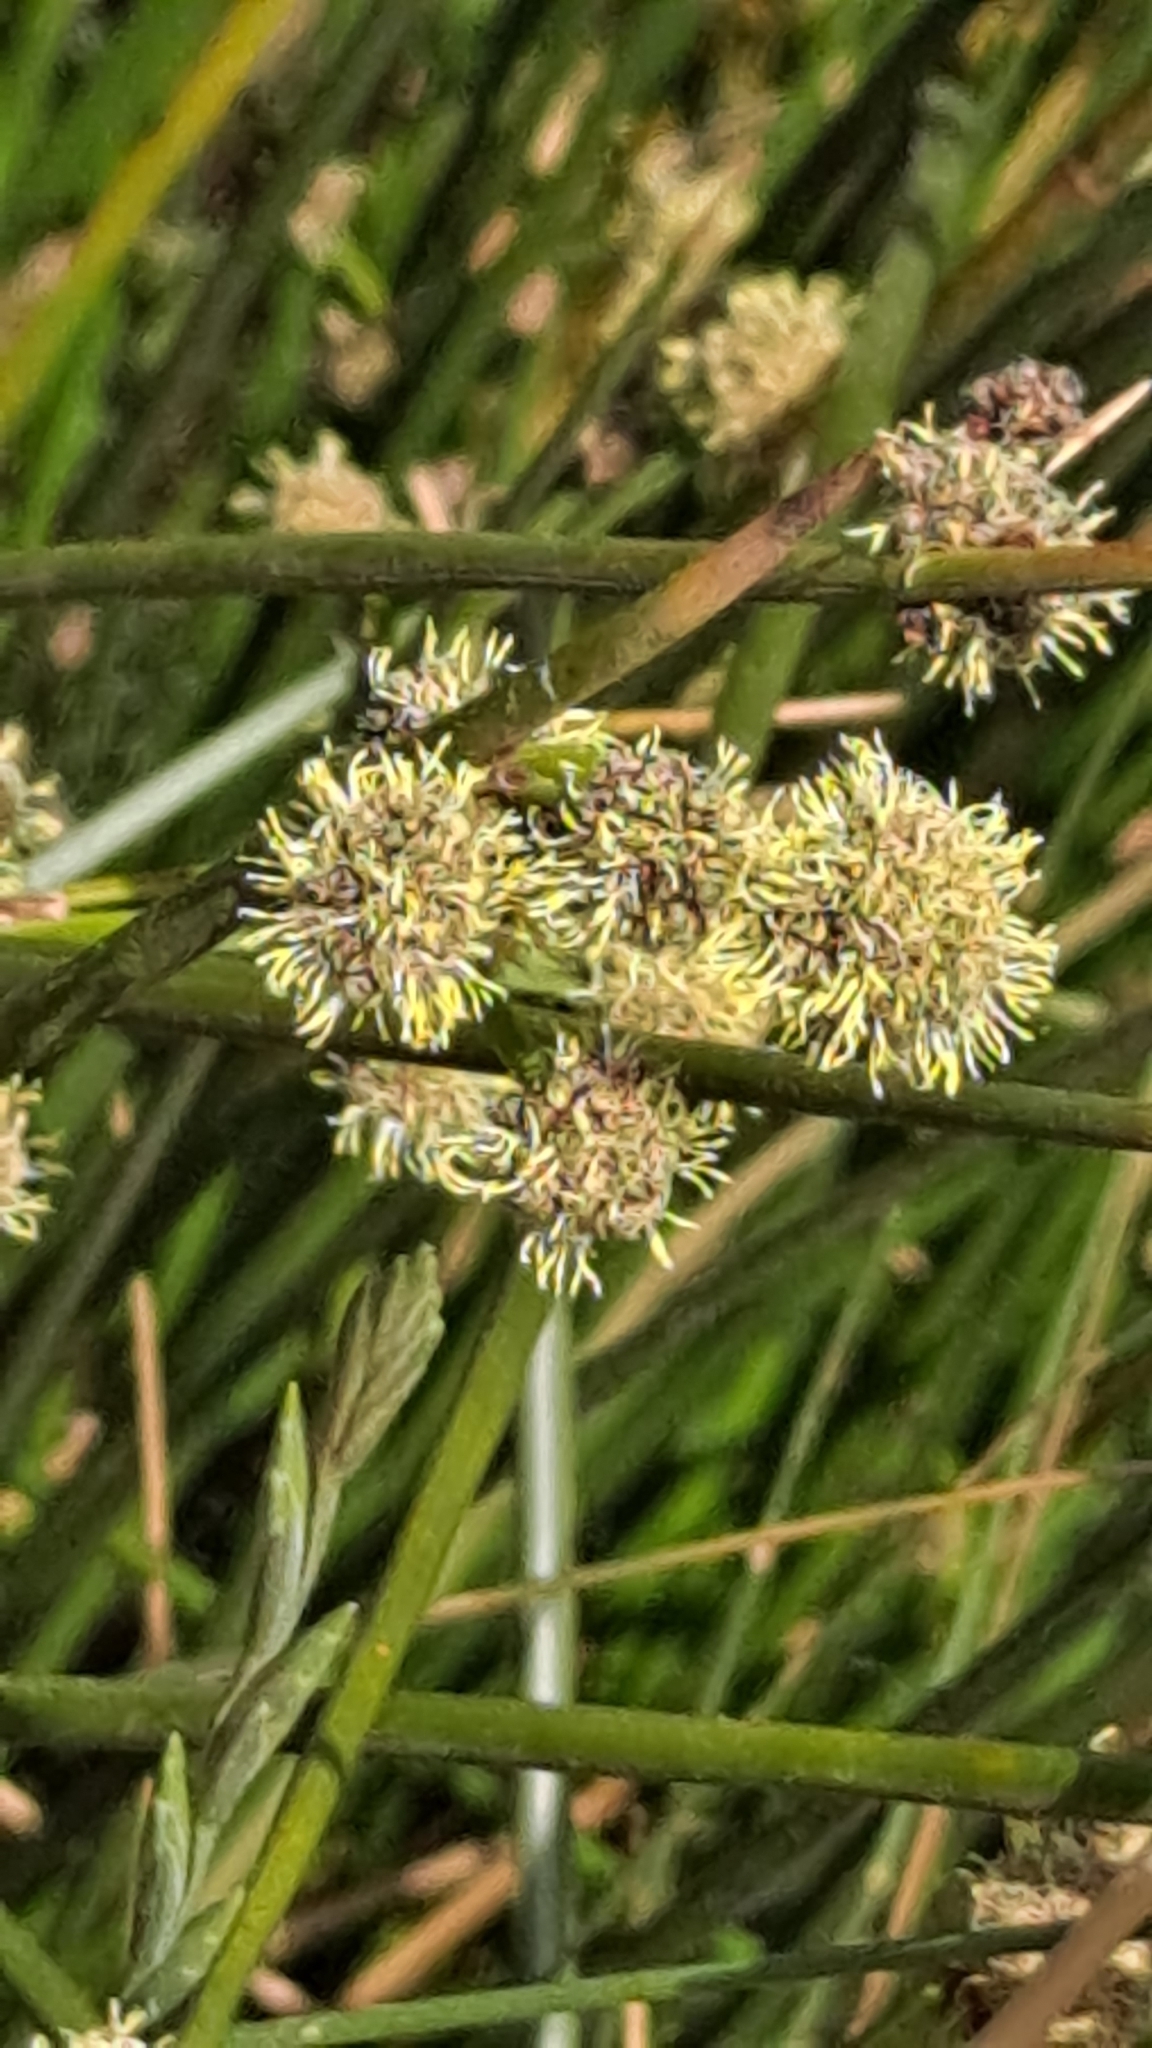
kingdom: Plantae
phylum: Tracheophyta
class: Liliopsida
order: Poales
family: Cyperaceae
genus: Scirpoides
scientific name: Scirpoides holoschoenus
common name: Round-headed club-rush
